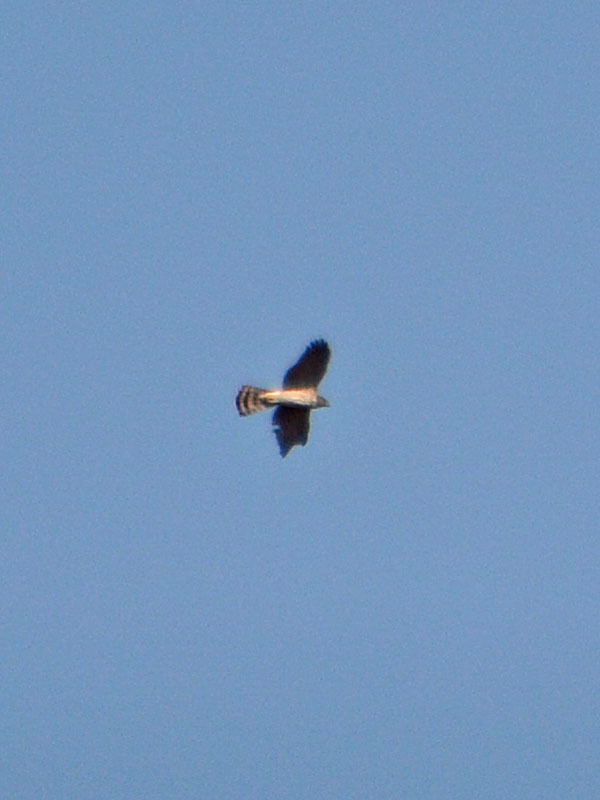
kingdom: Animalia
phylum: Chordata
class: Aves
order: Accipitriformes
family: Accipitridae
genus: Circus
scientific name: Circus cyaneus
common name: Hen harrier
